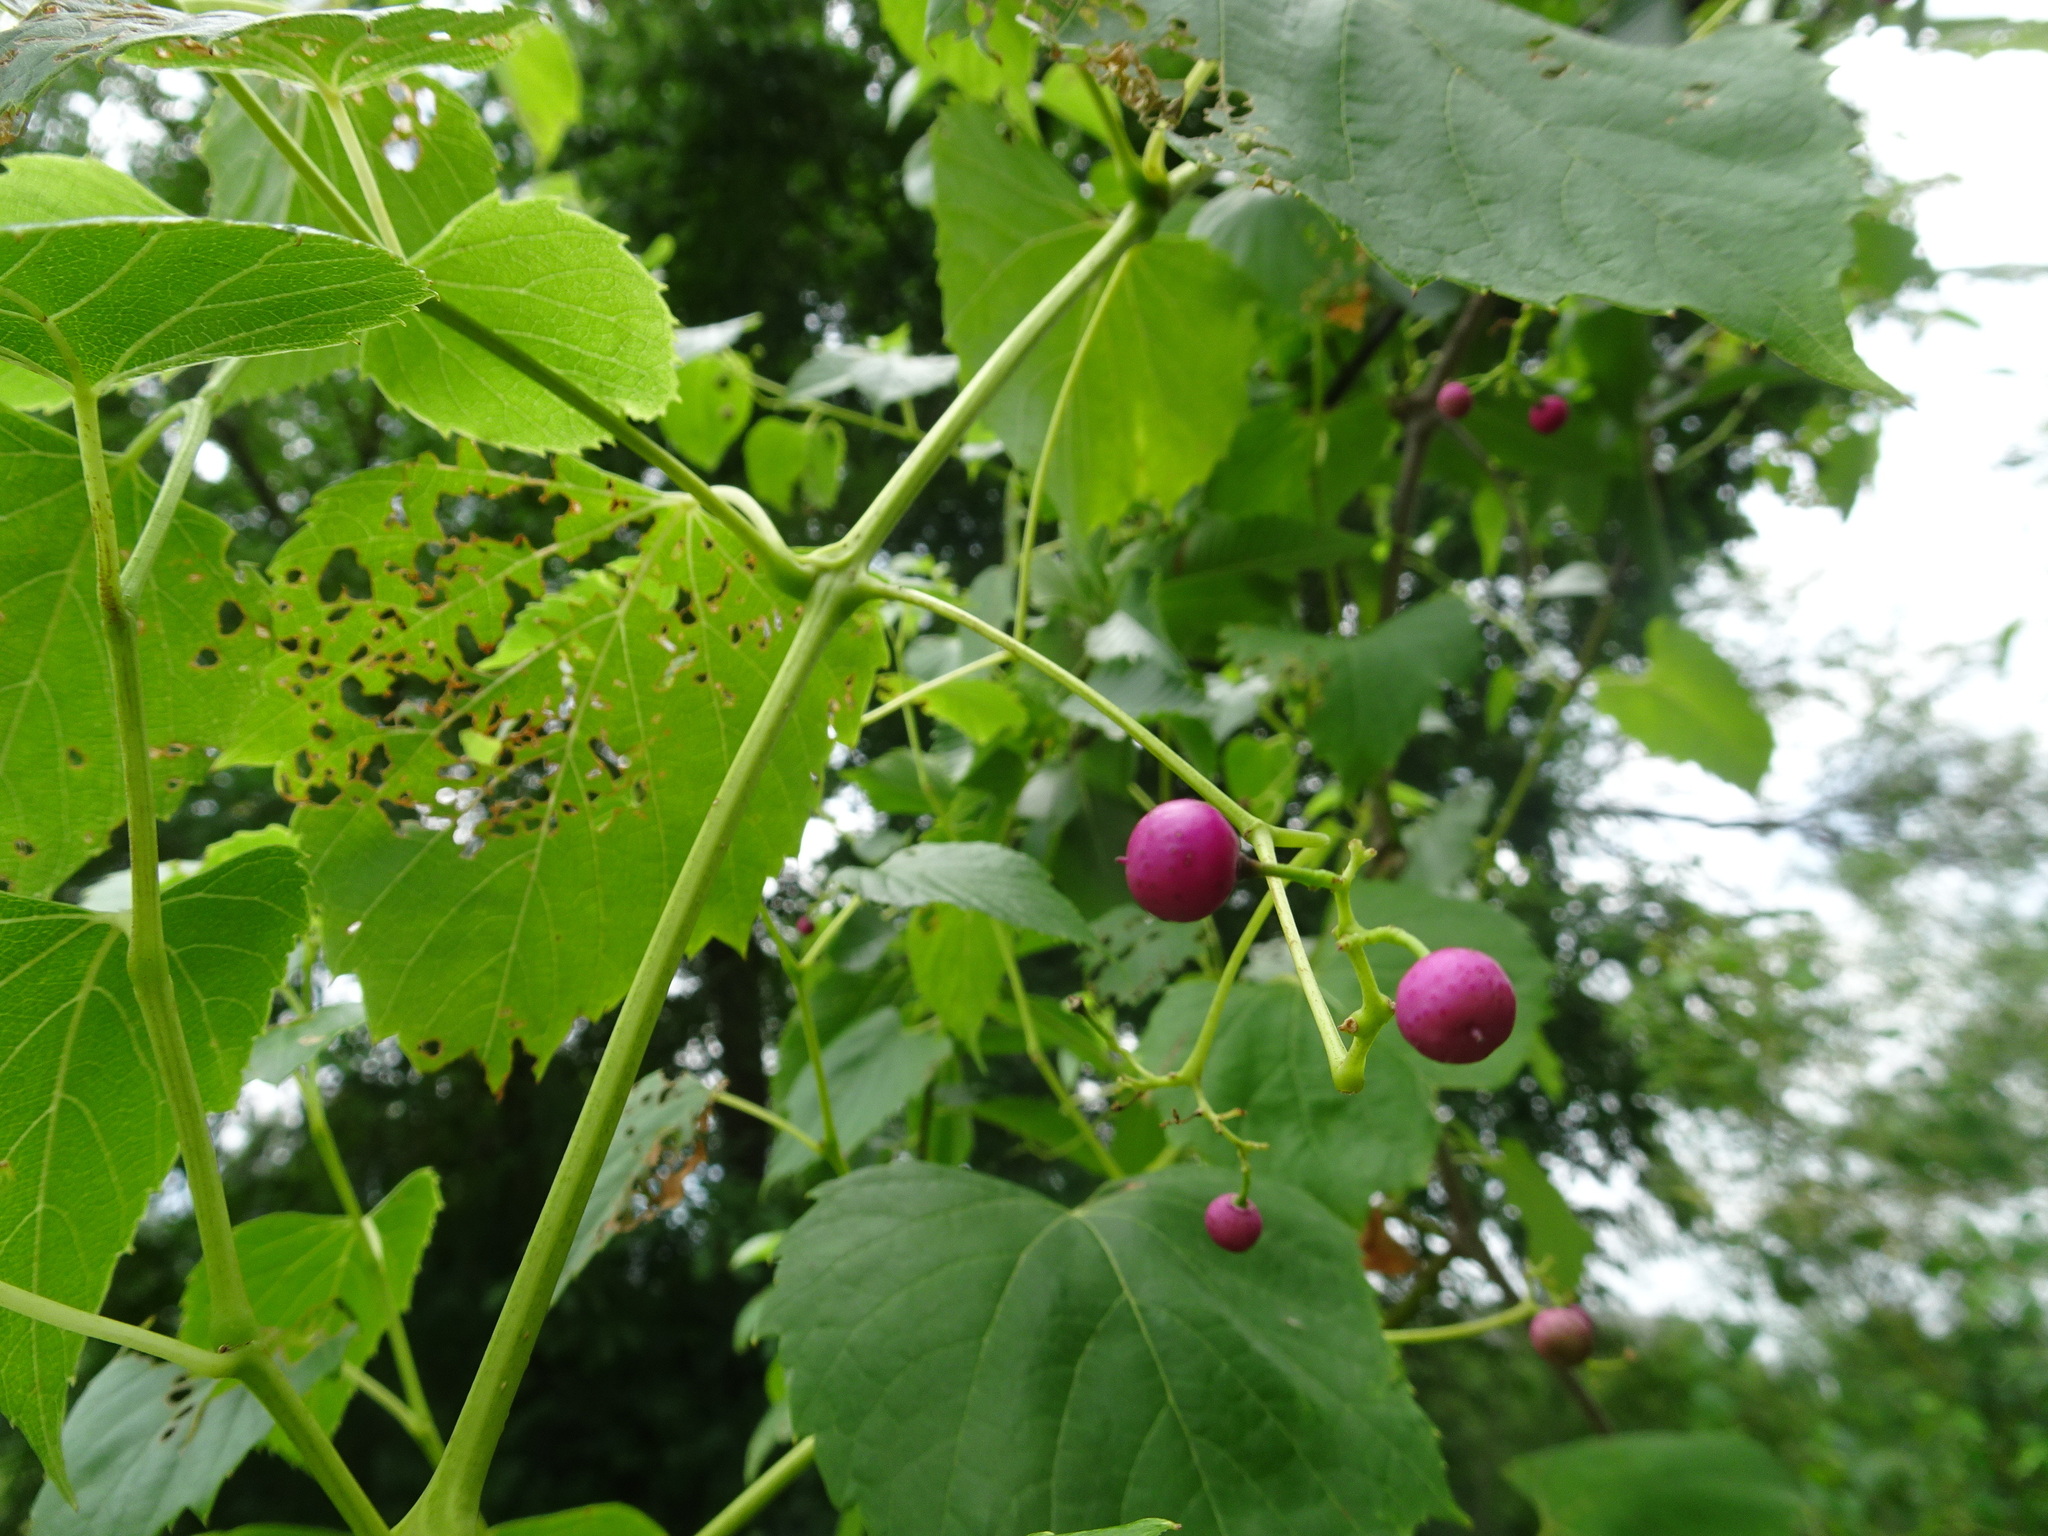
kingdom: Plantae
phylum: Tracheophyta
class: Magnoliopsida
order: Vitales
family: Vitaceae
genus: Ampelopsis
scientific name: Ampelopsis cordata
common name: Heart-leaf ampelopsis
